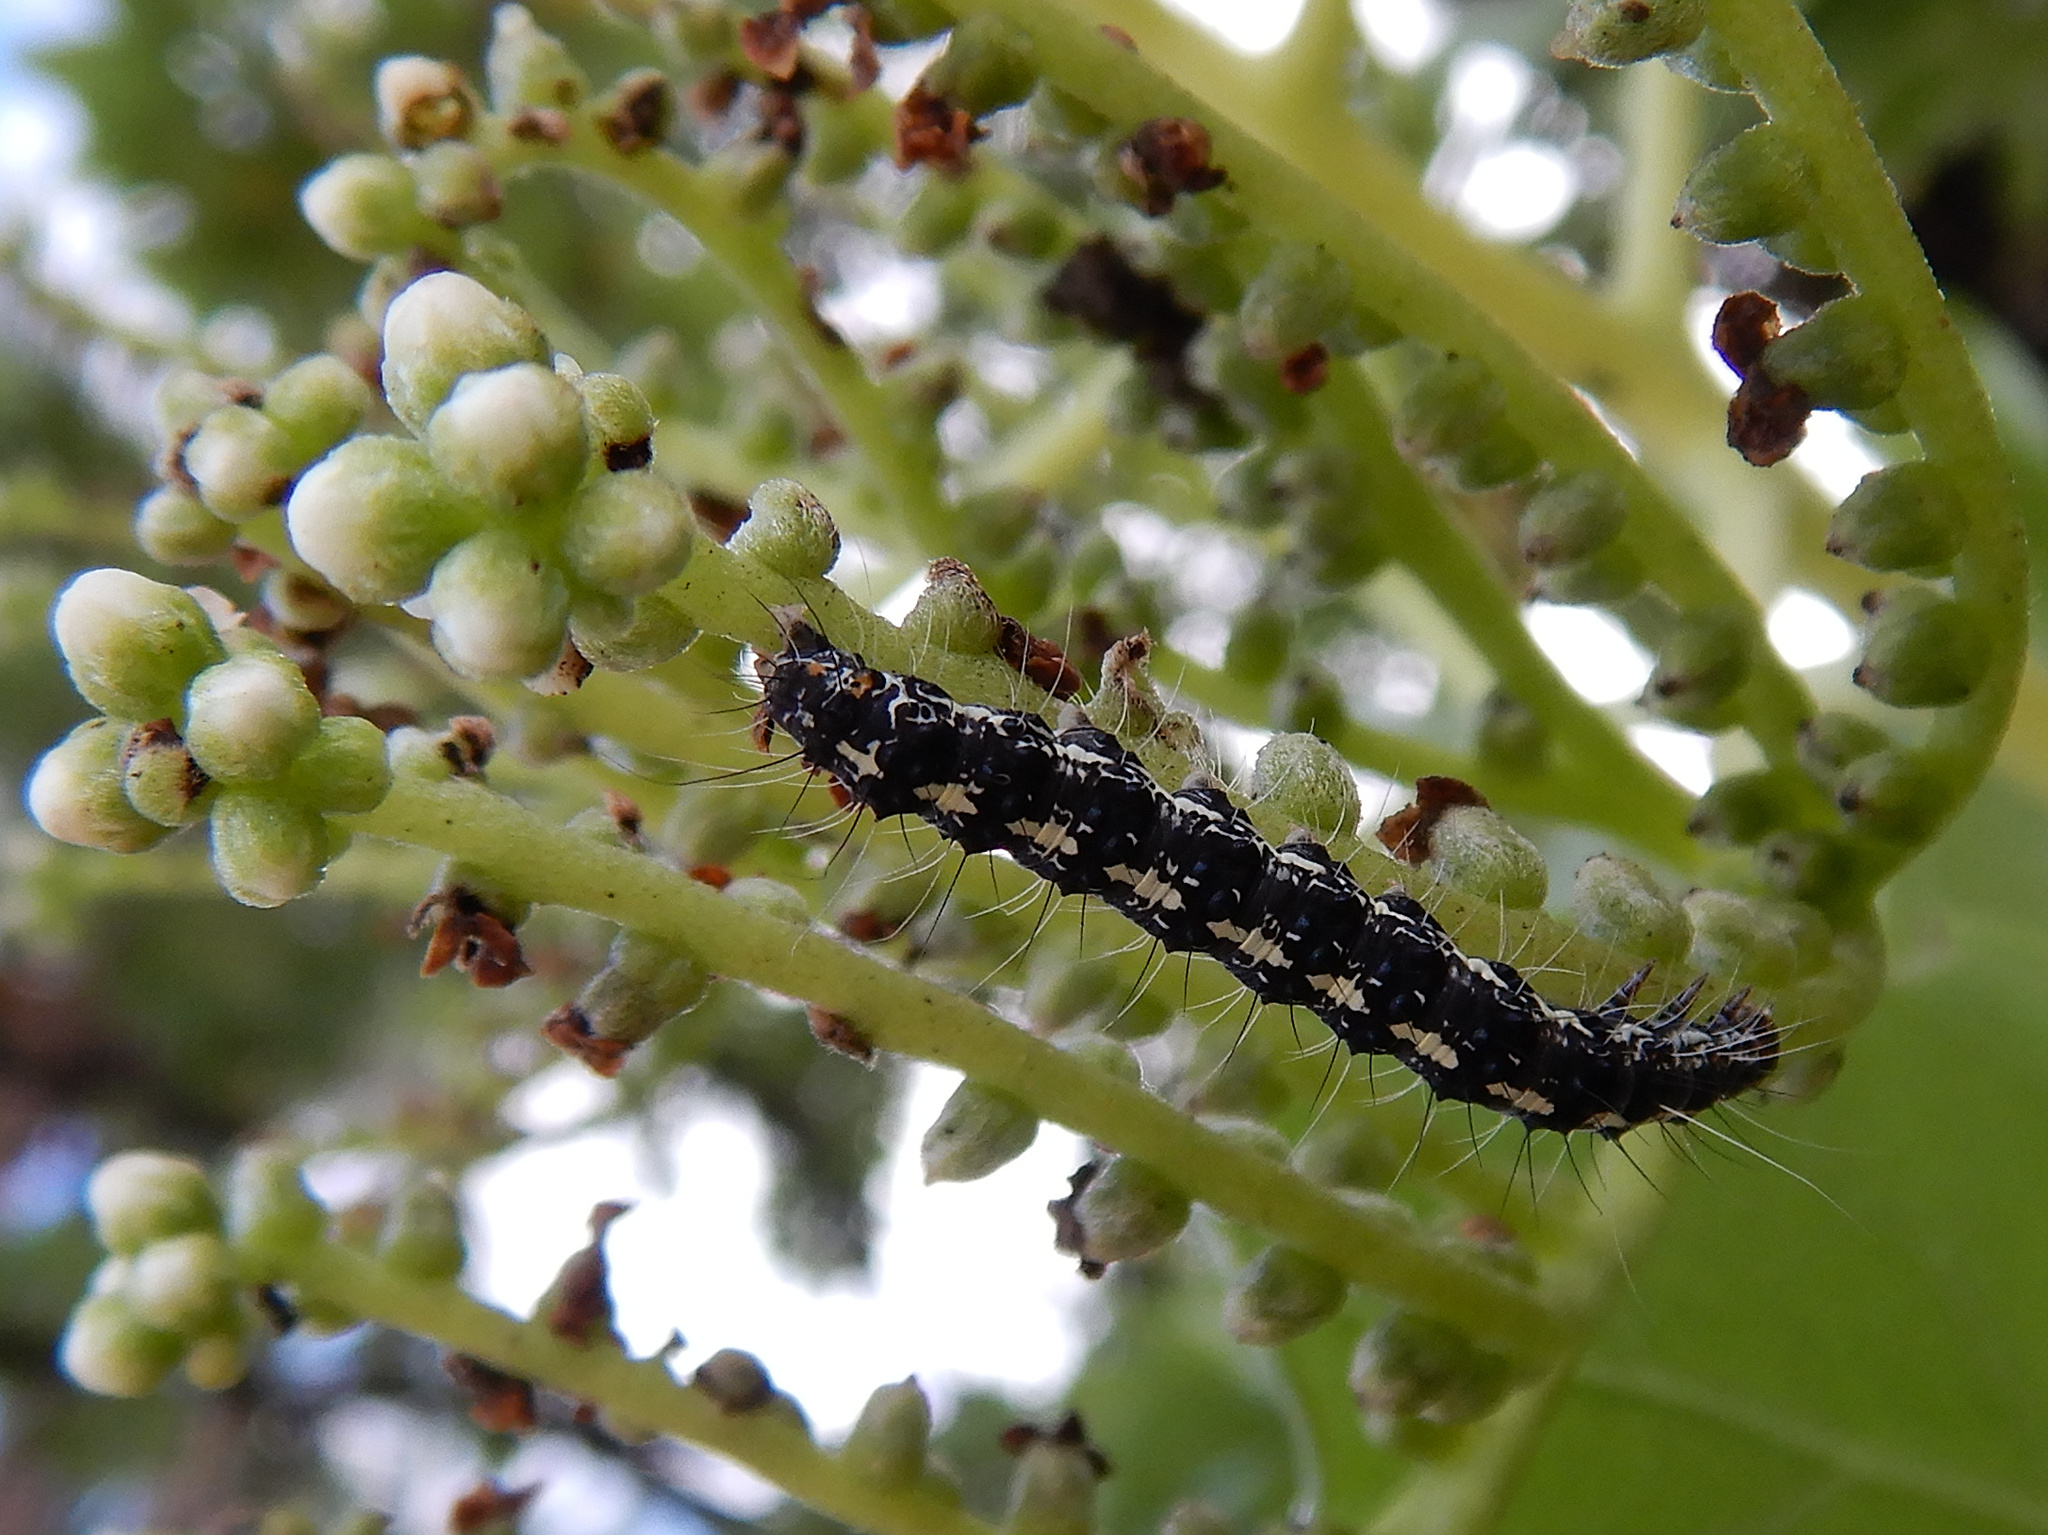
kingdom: Animalia
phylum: Arthropoda
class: Insecta
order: Lepidoptera
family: Erebidae
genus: Utetheisa
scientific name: Utetheisa pulchelloides
